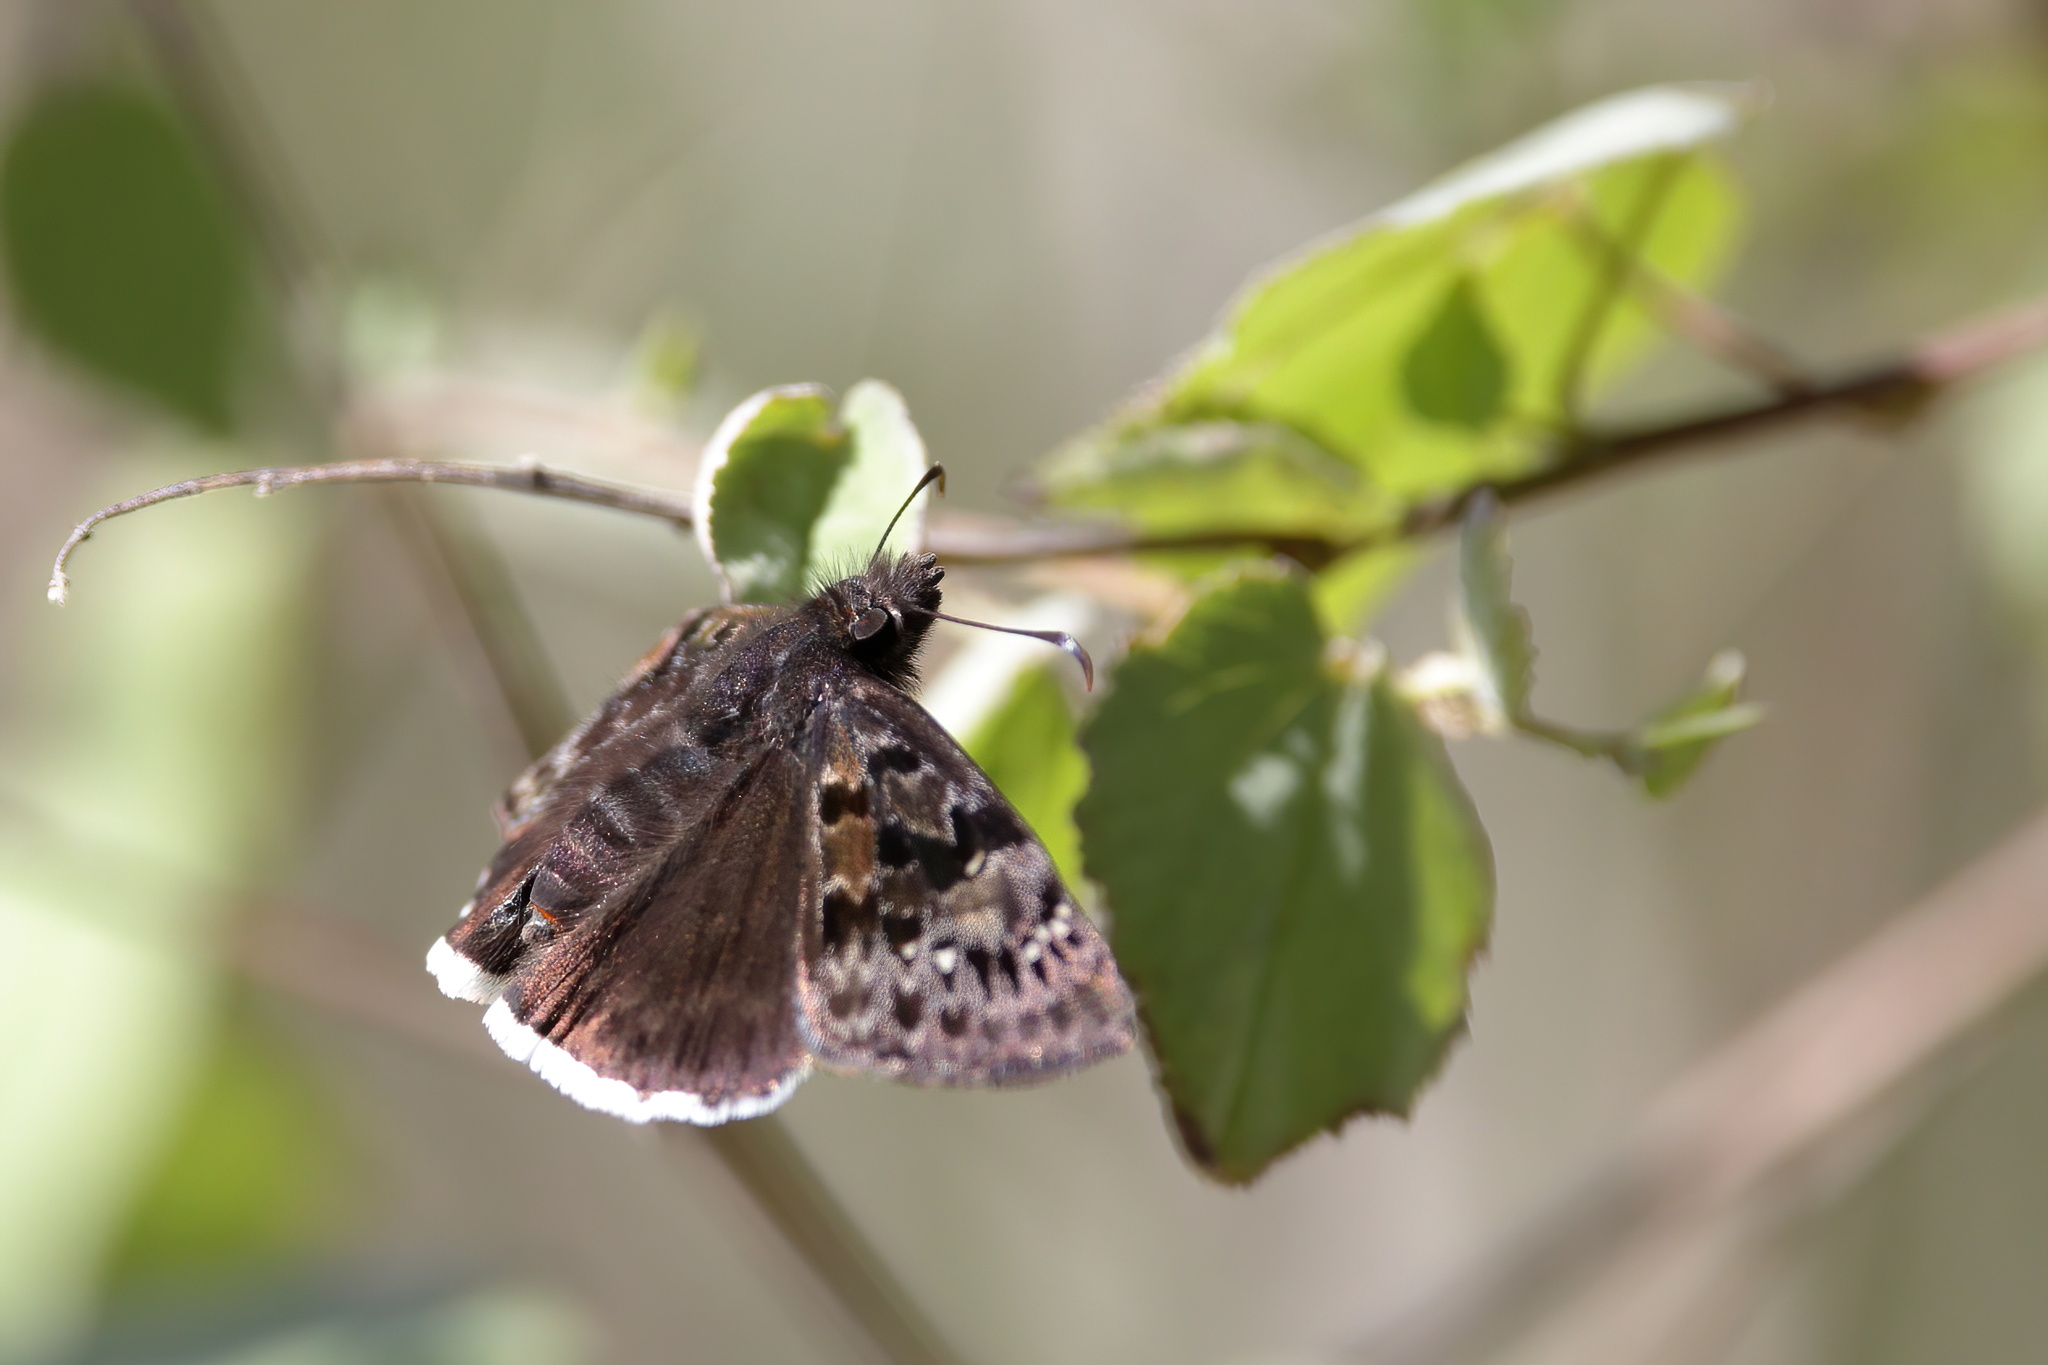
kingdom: Animalia
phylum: Arthropoda
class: Insecta
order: Lepidoptera
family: Hesperiidae
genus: Erynnis
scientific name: Erynnis tristis
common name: Mournful duskywing
